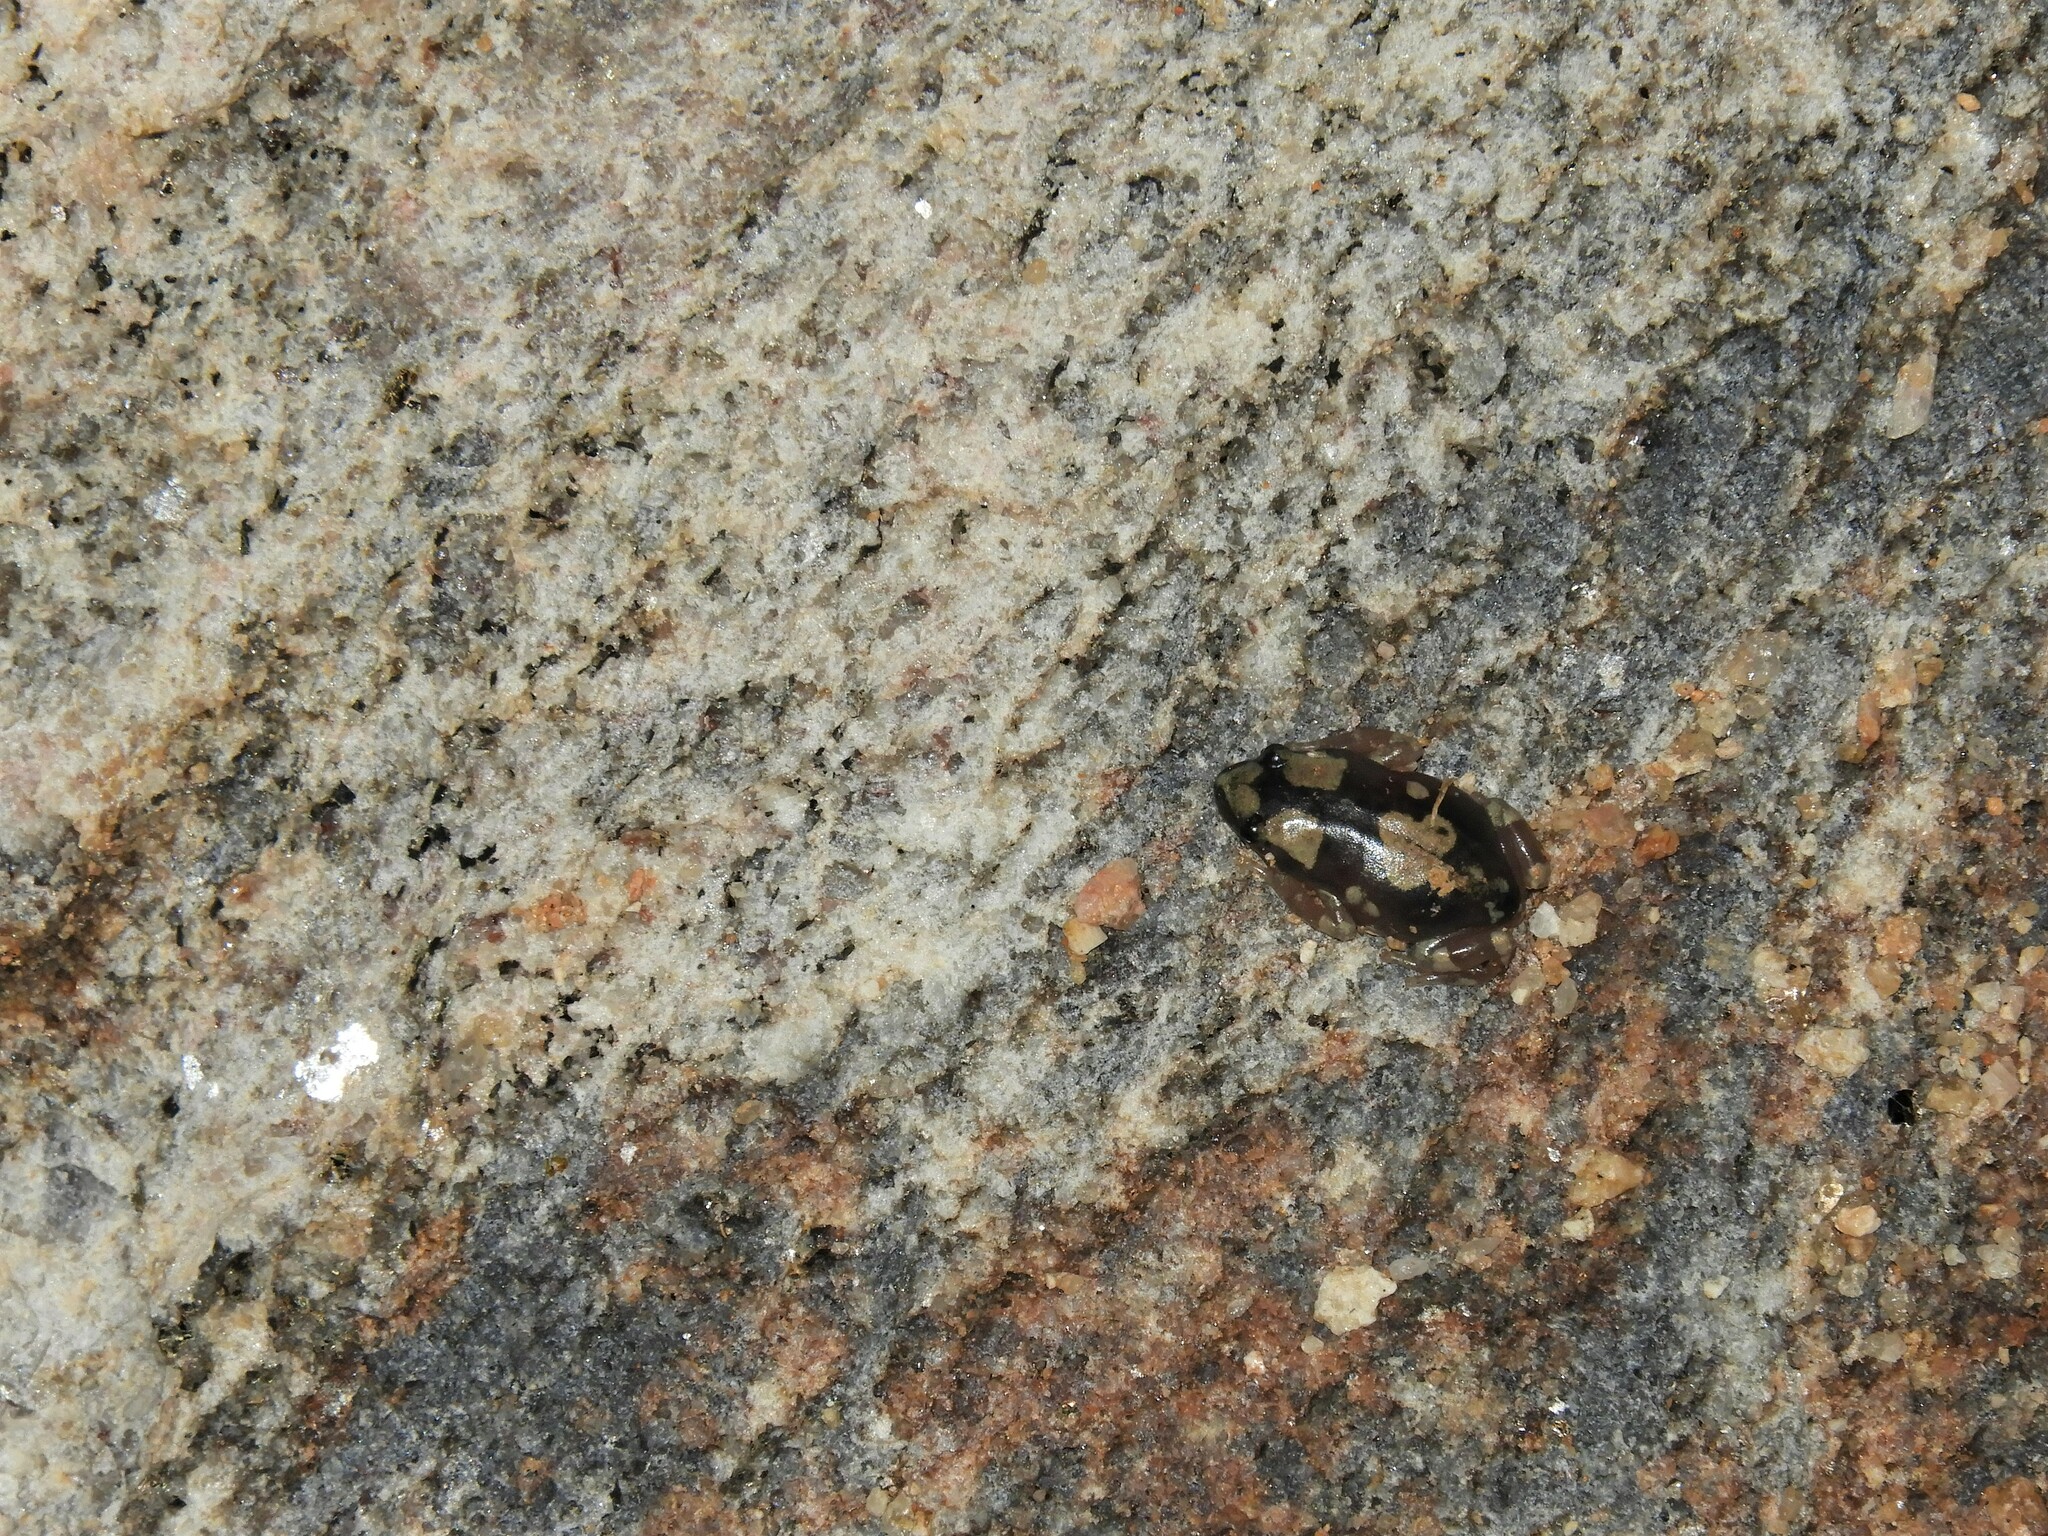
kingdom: Animalia
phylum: Chordata
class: Amphibia
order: Anura
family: Microhylidae
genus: Phrynomantis
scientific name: Phrynomantis annectens
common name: Marbled rubber frog
